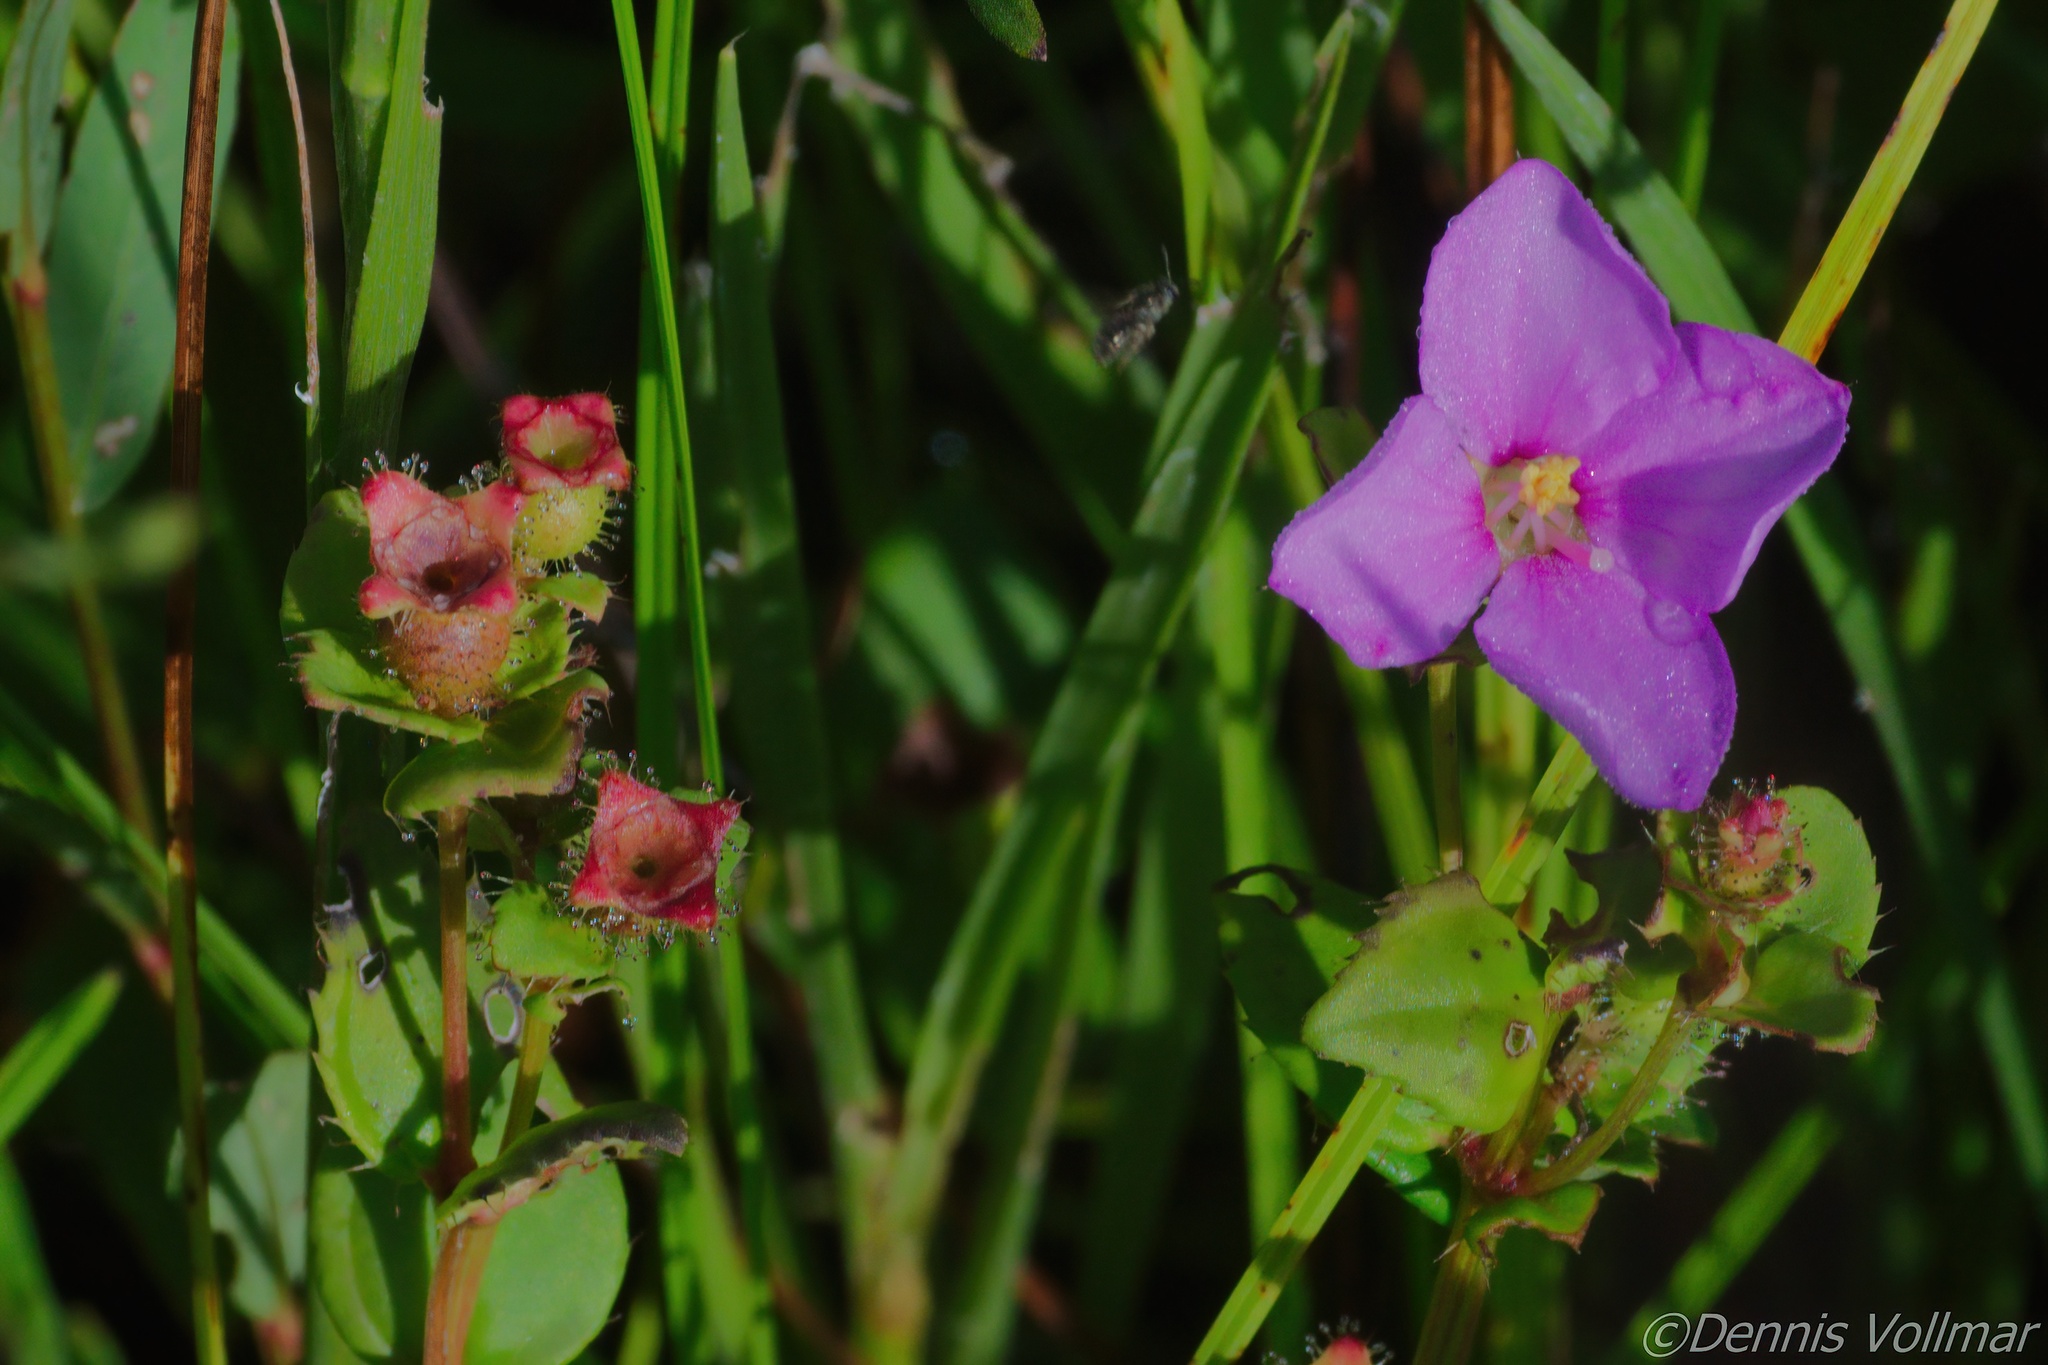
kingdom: Plantae
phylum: Tracheophyta
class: Magnoliopsida
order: Myrtales
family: Melastomataceae
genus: Rhexia
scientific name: Rhexia nuttallii
